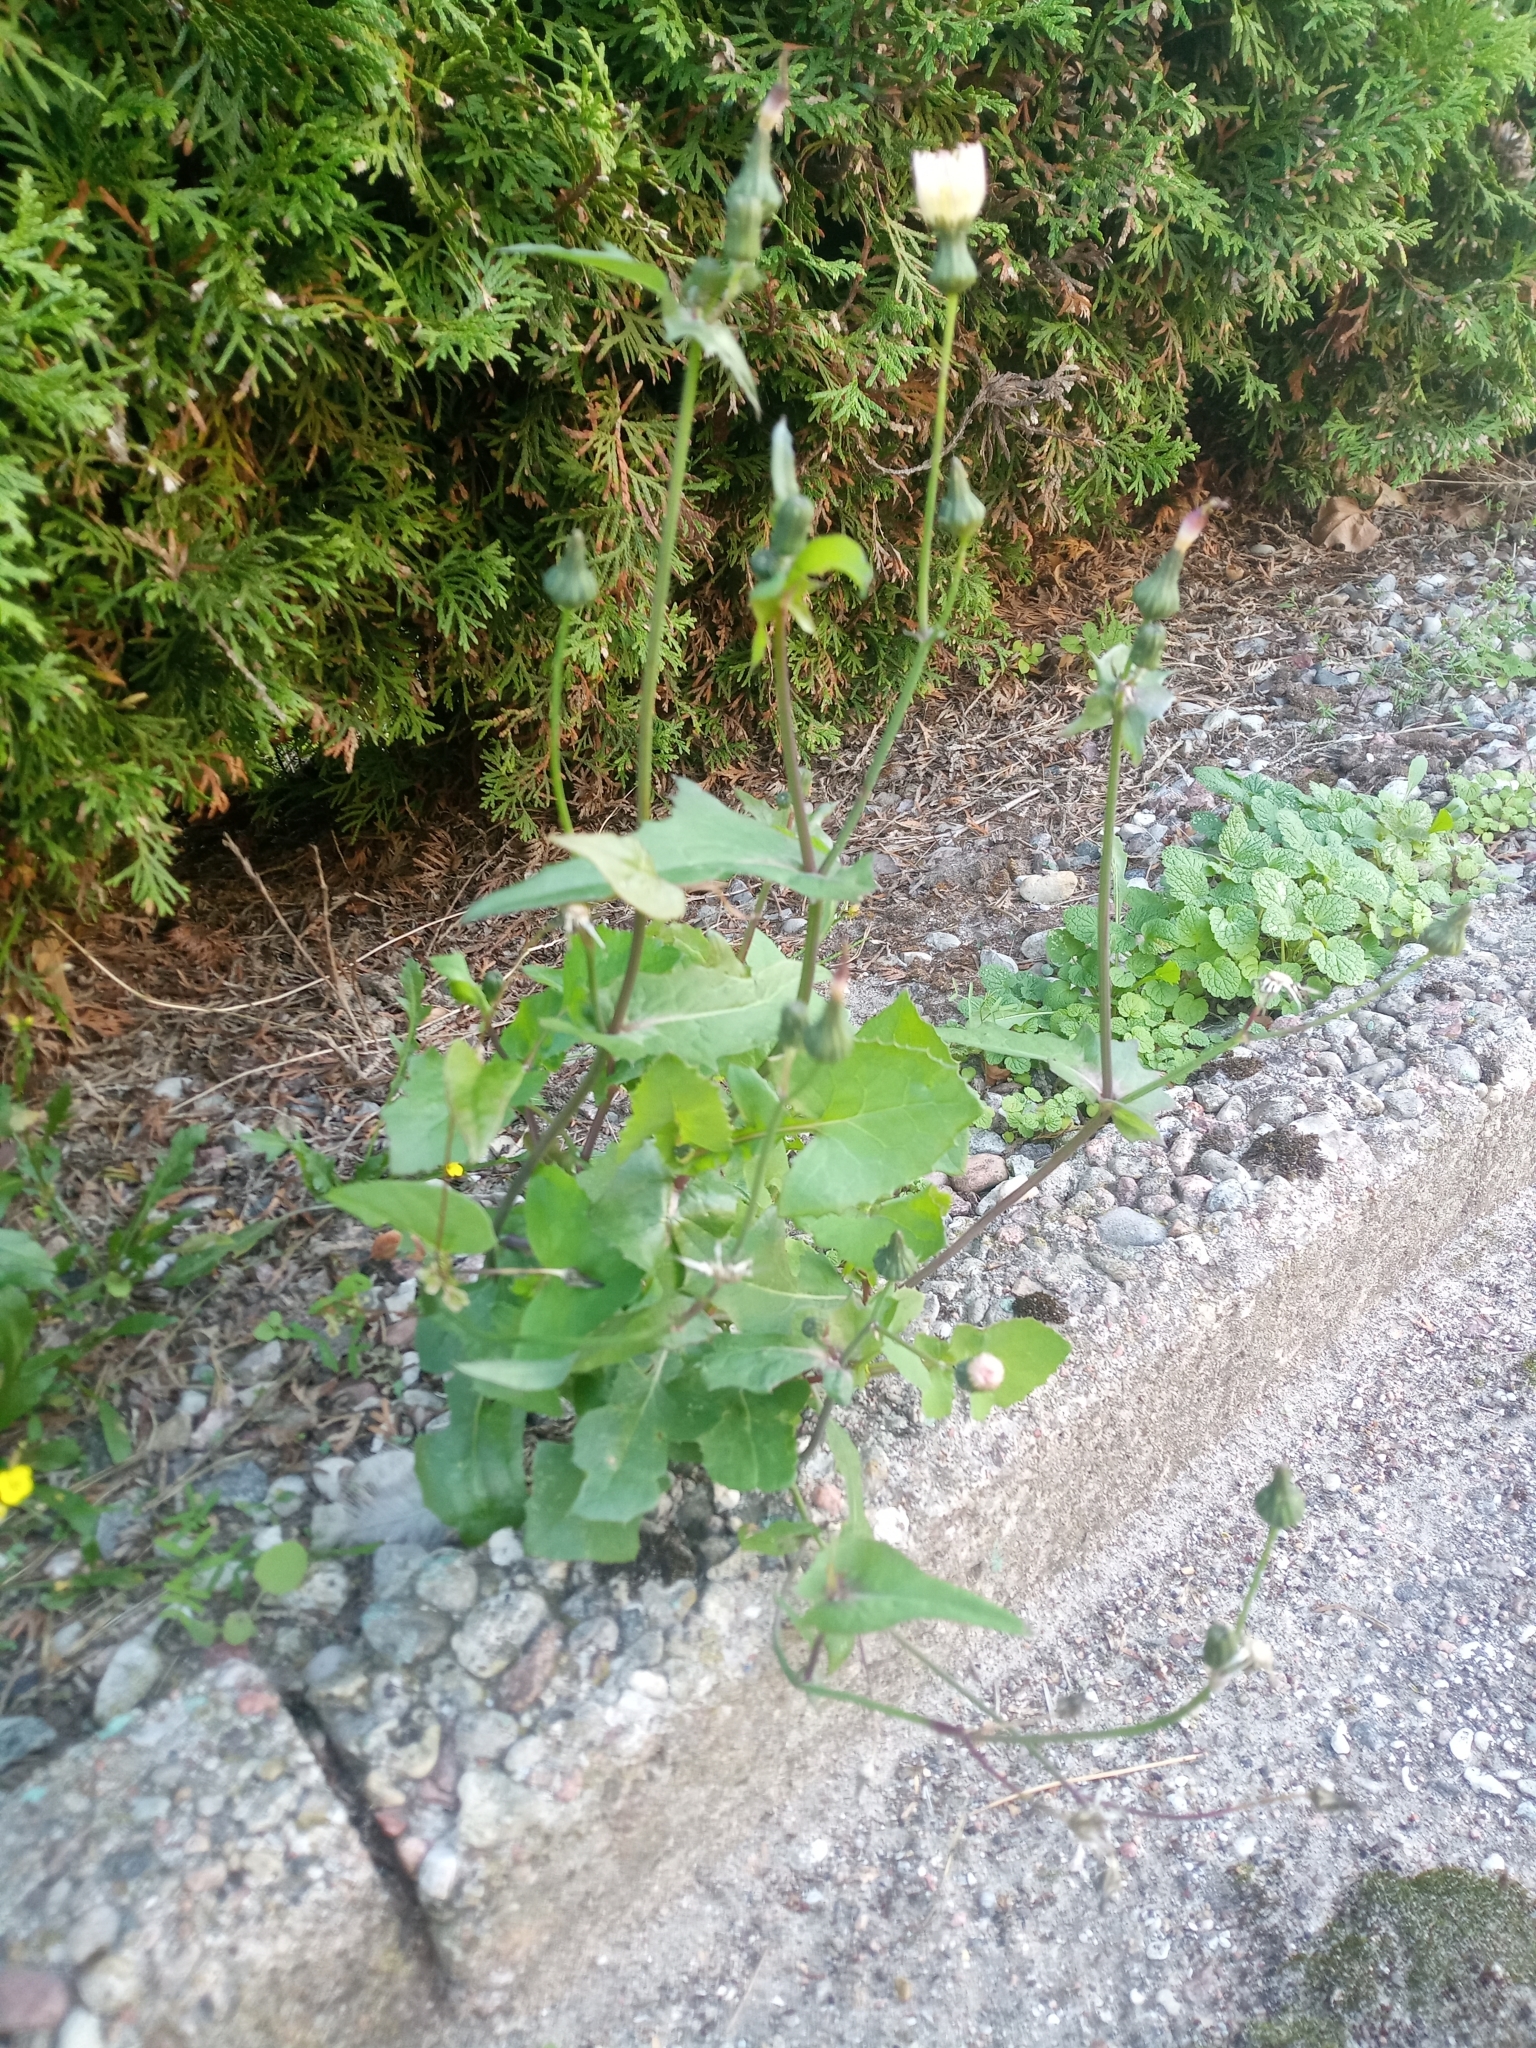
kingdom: Plantae
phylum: Tracheophyta
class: Magnoliopsida
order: Asterales
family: Asteraceae
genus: Sonchus
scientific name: Sonchus oleraceus
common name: Common sowthistle
